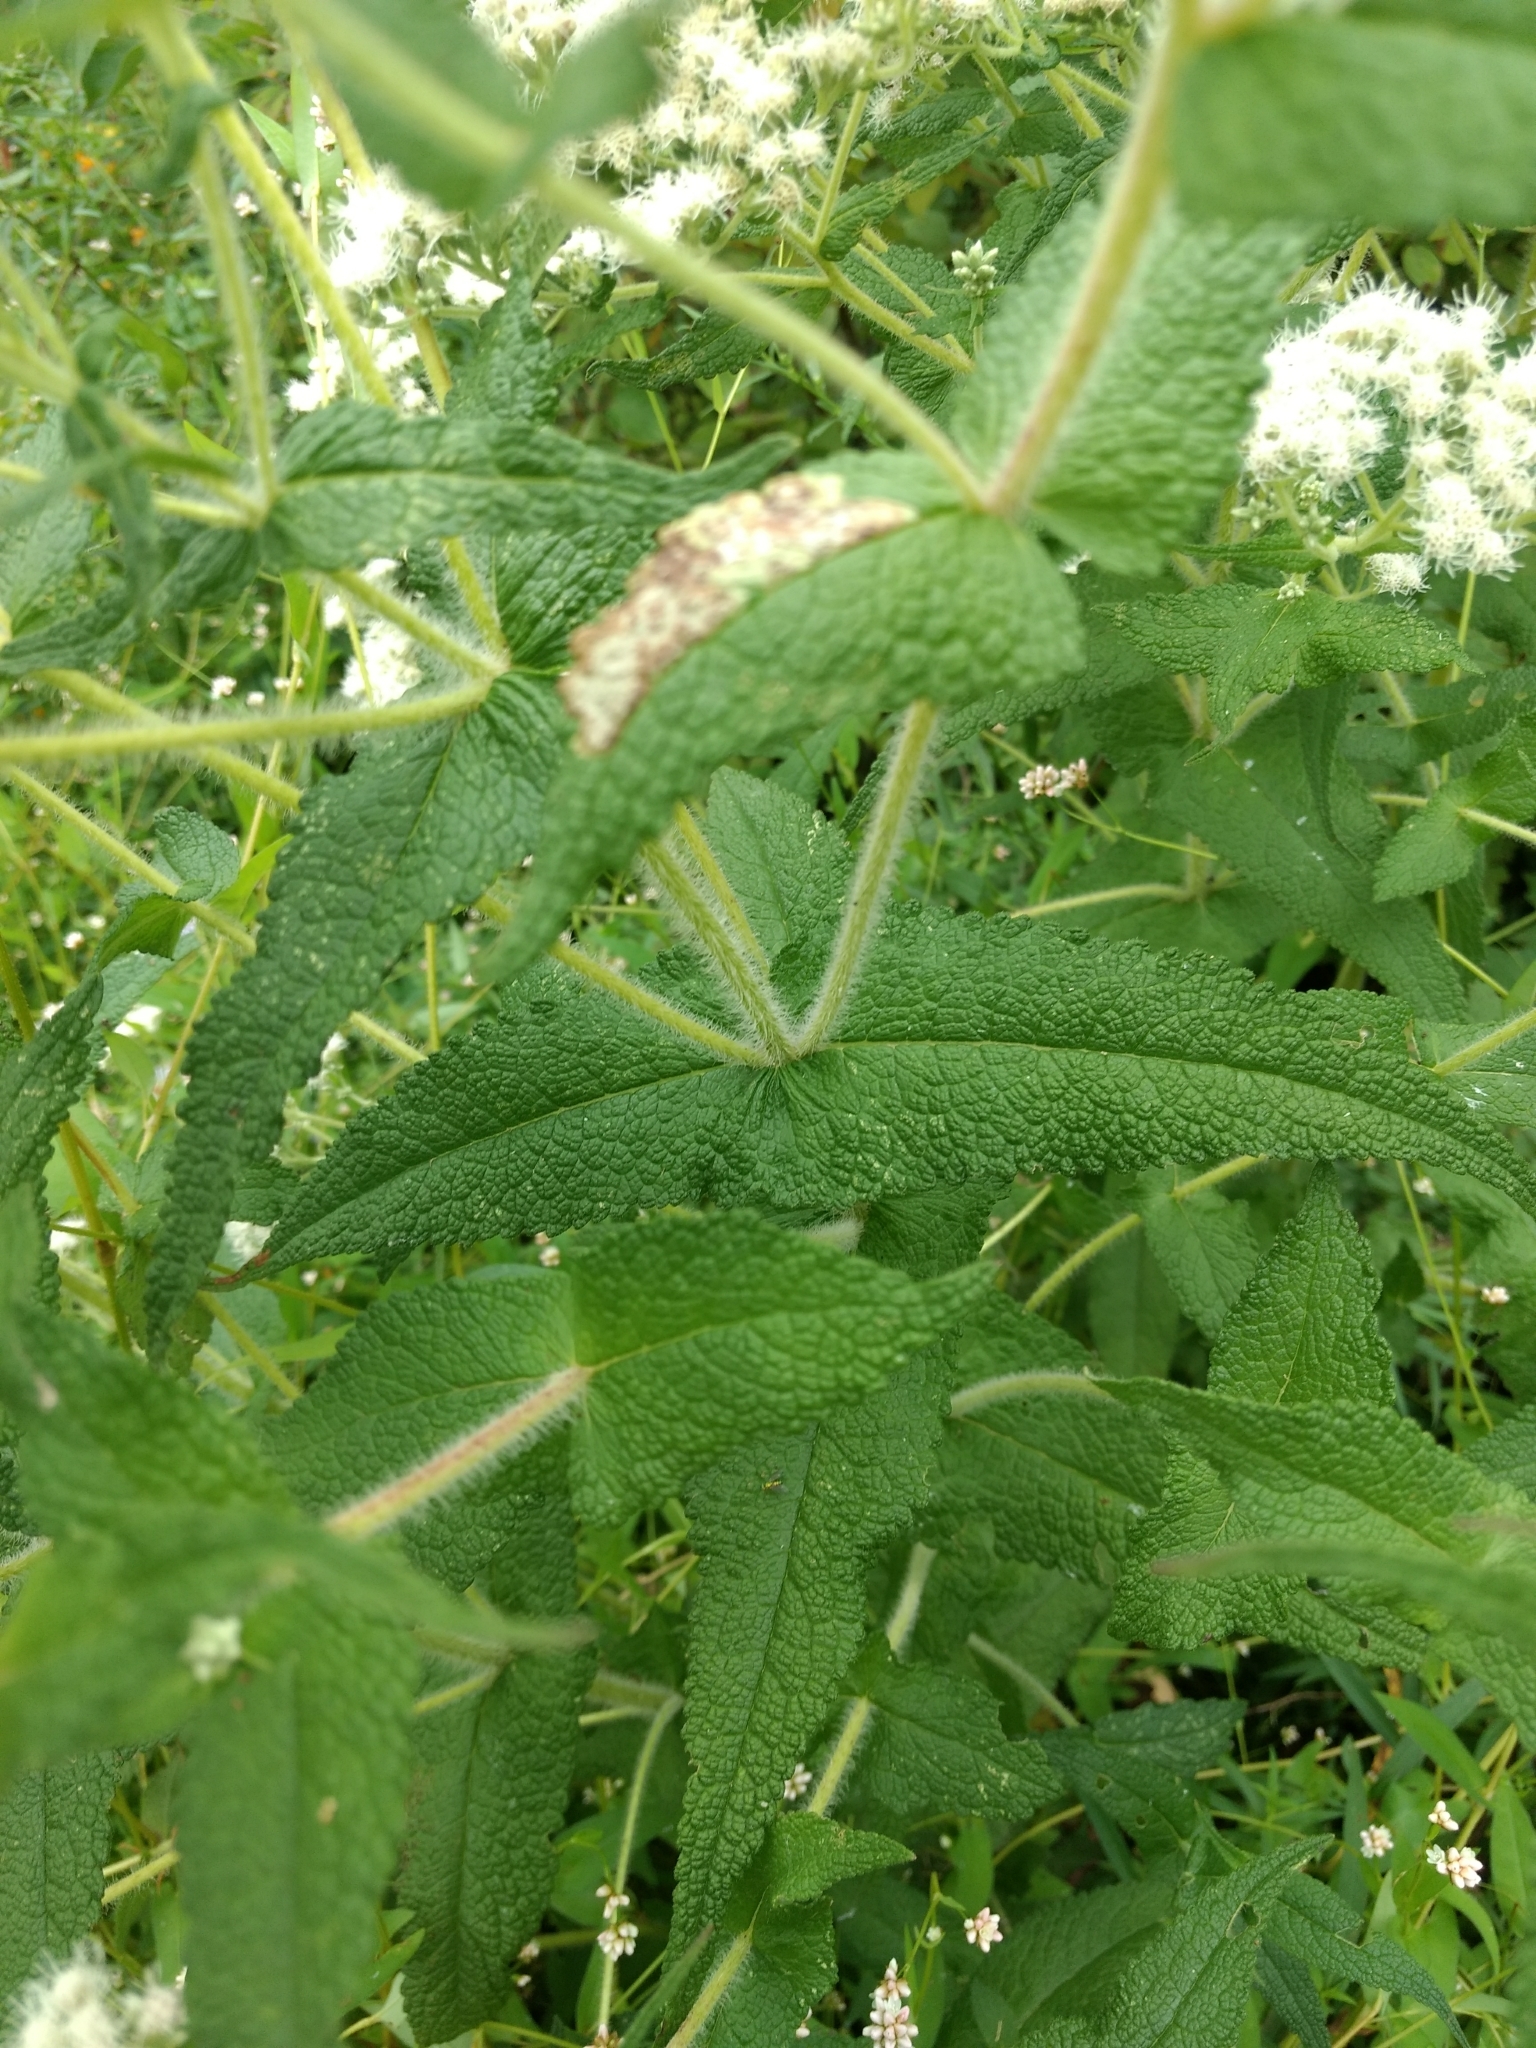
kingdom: Plantae
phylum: Tracheophyta
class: Magnoliopsida
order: Asterales
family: Asteraceae
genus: Eupatorium
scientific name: Eupatorium perfoliatum
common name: Boneset
